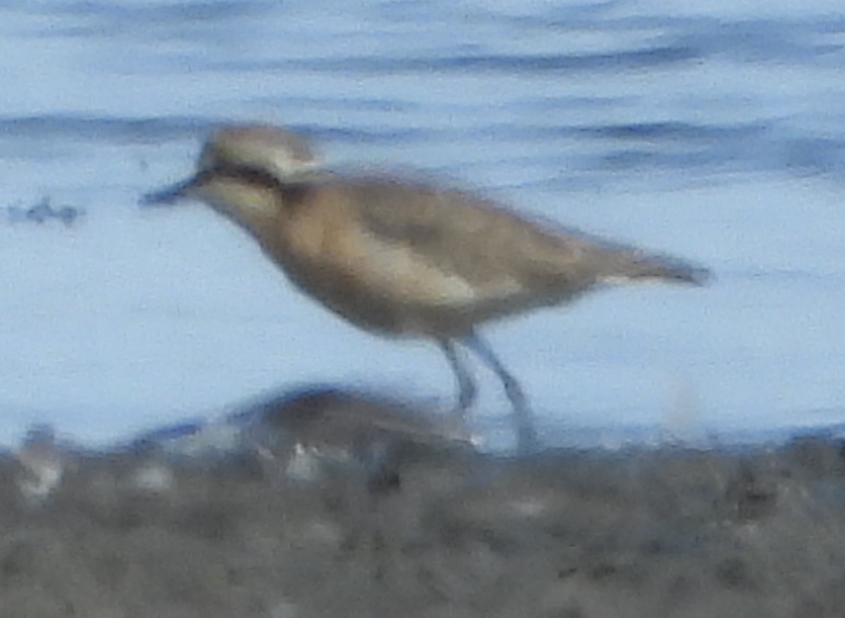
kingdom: Animalia
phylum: Chordata
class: Aves
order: Charadriiformes
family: Charadriidae
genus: Anarhynchus
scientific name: Anarhynchus
